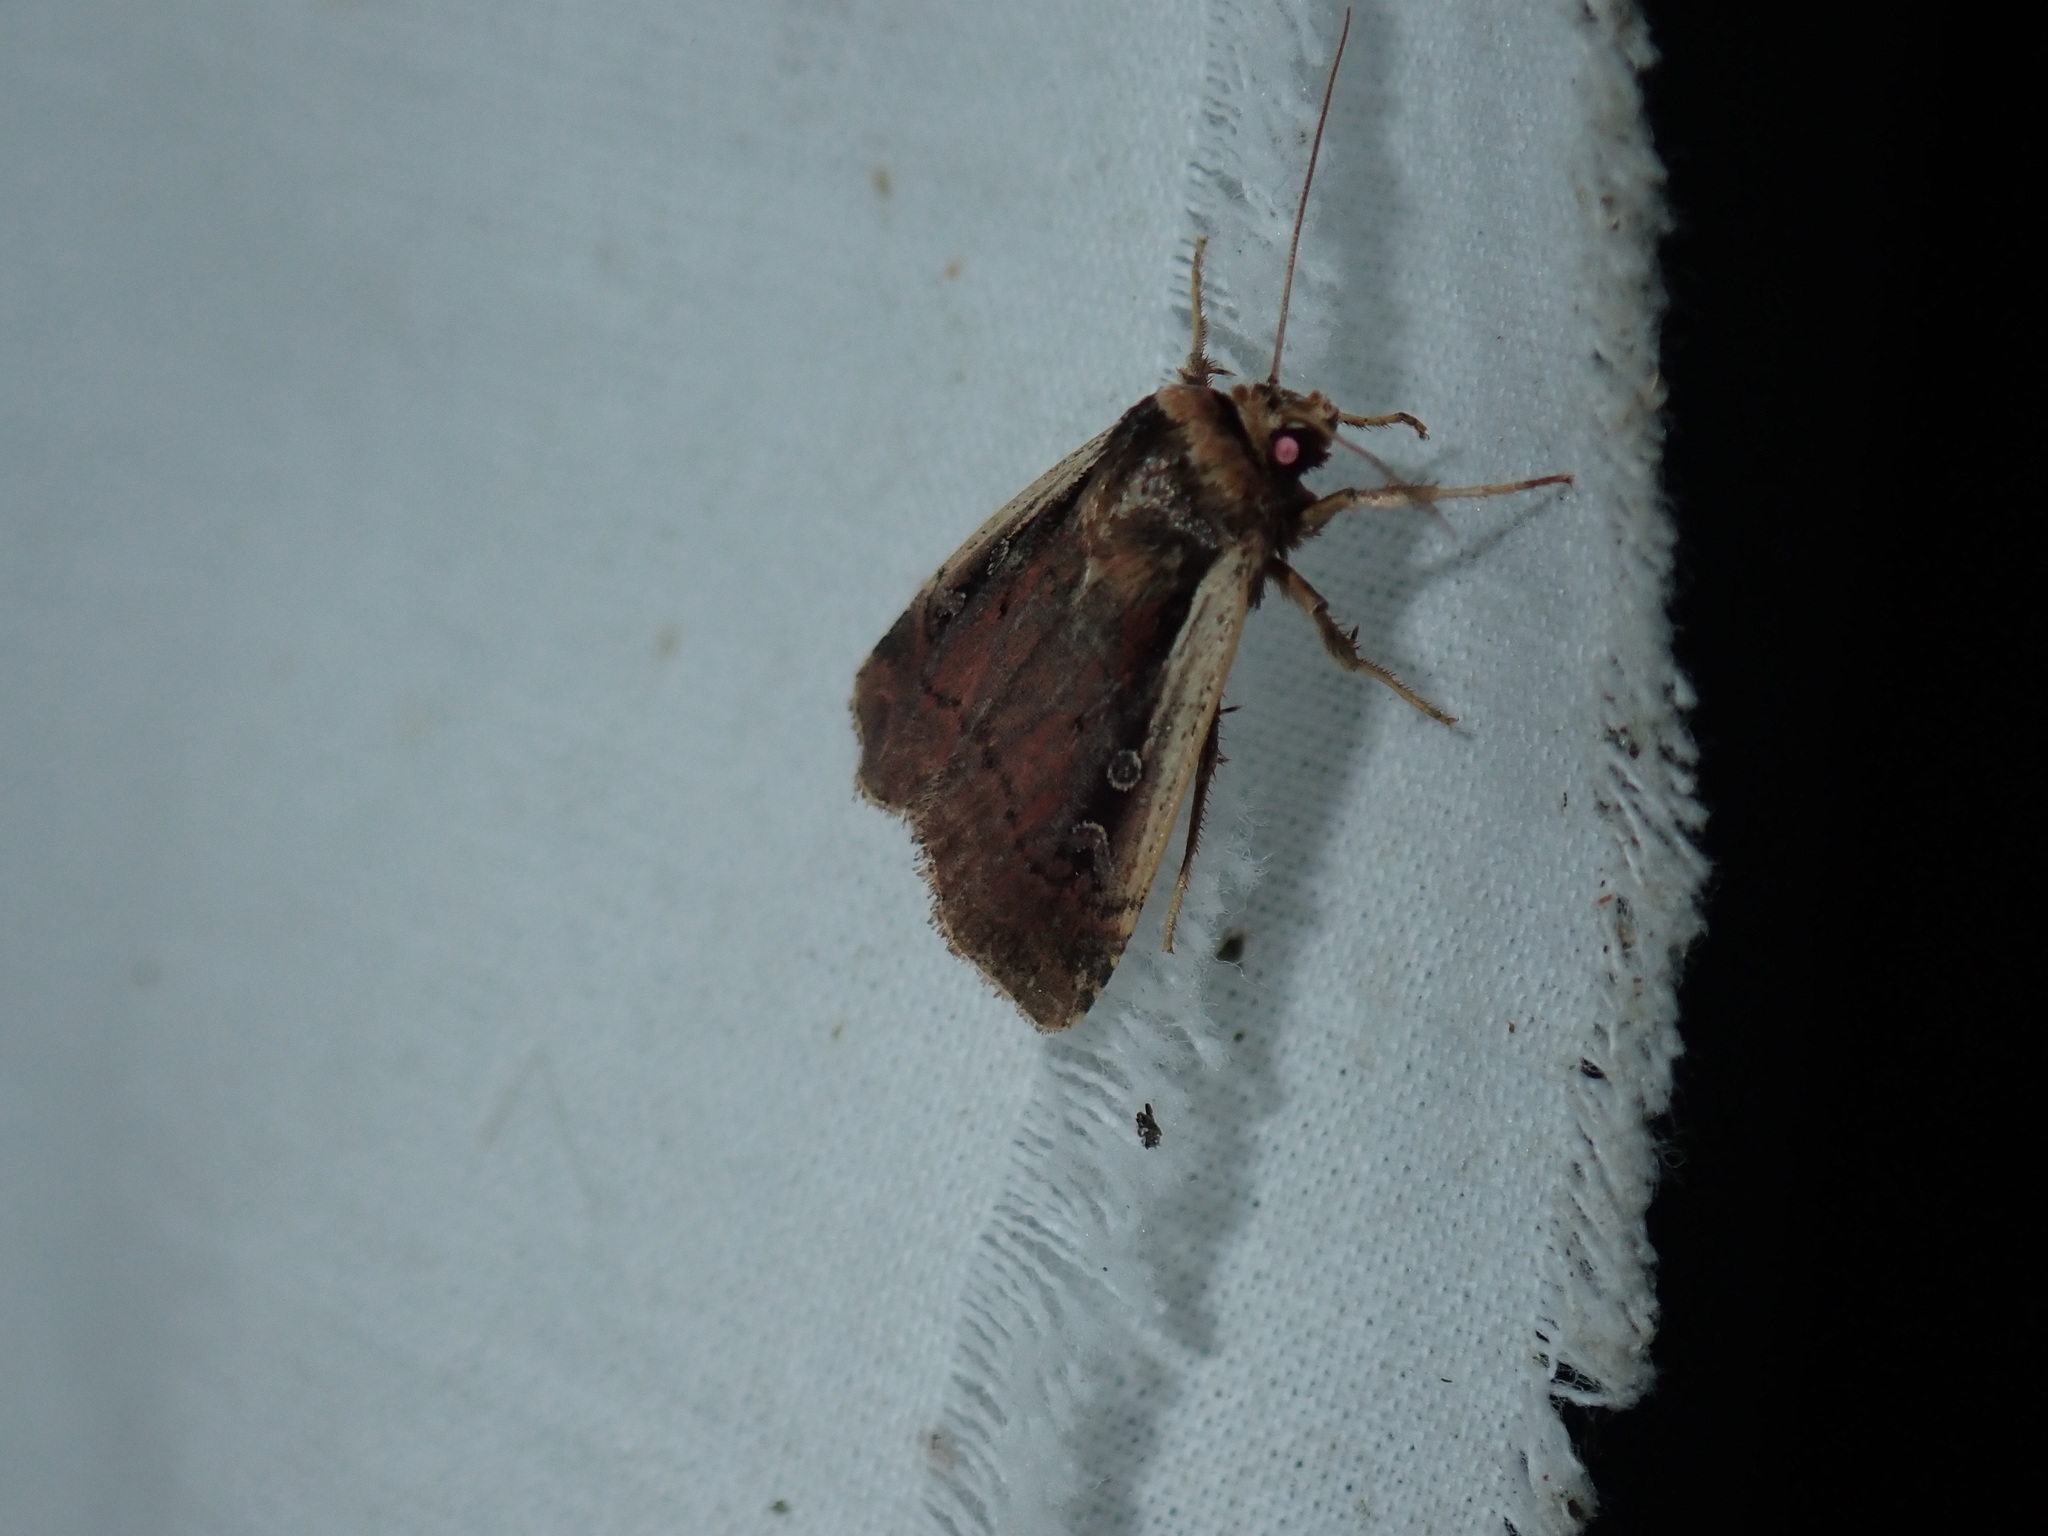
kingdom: Animalia
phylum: Arthropoda
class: Insecta
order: Lepidoptera
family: Noctuidae
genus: Ochropleura
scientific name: Ochropleura implecta
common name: Flame-shouldered dart
